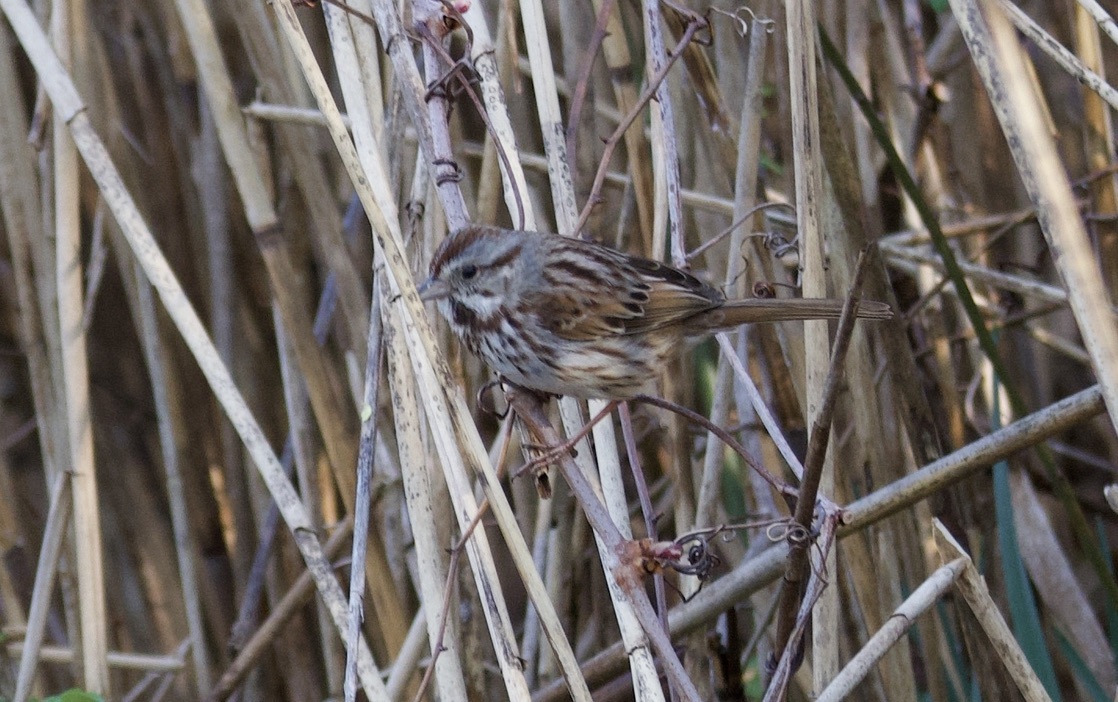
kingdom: Animalia
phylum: Chordata
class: Aves
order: Passeriformes
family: Passerellidae
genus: Melospiza
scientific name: Melospiza melodia
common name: Song sparrow
